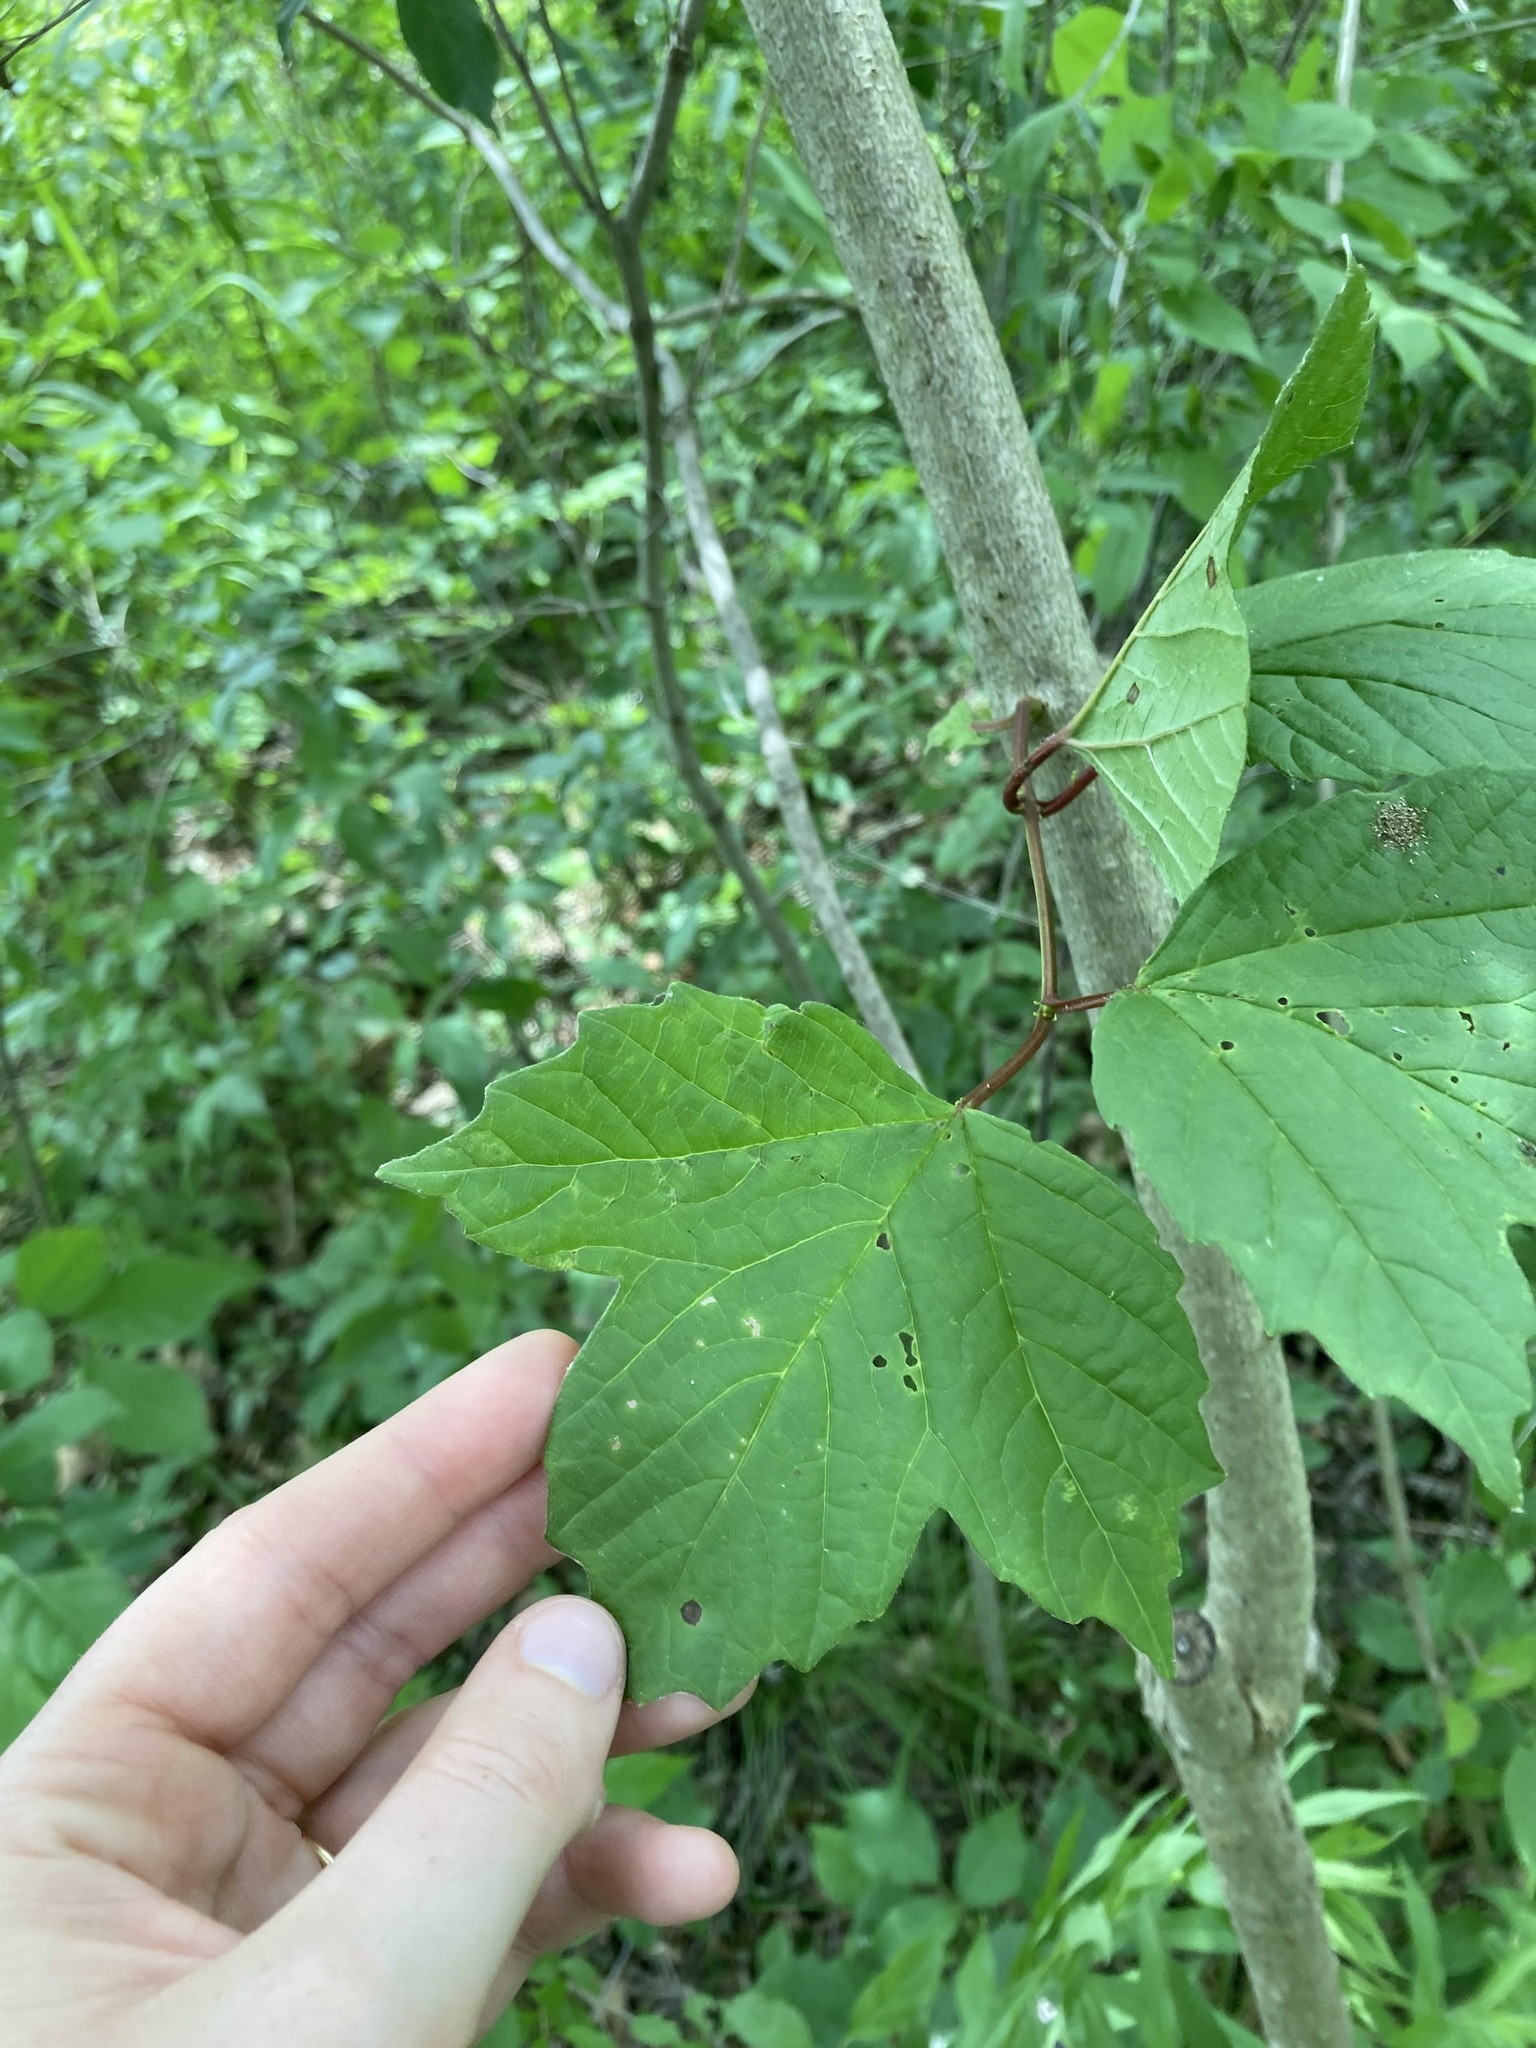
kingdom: Plantae
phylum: Tracheophyta
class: Magnoliopsida
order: Dipsacales
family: Viburnaceae
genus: Viburnum
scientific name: Viburnum opulus
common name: Guelder-rose
